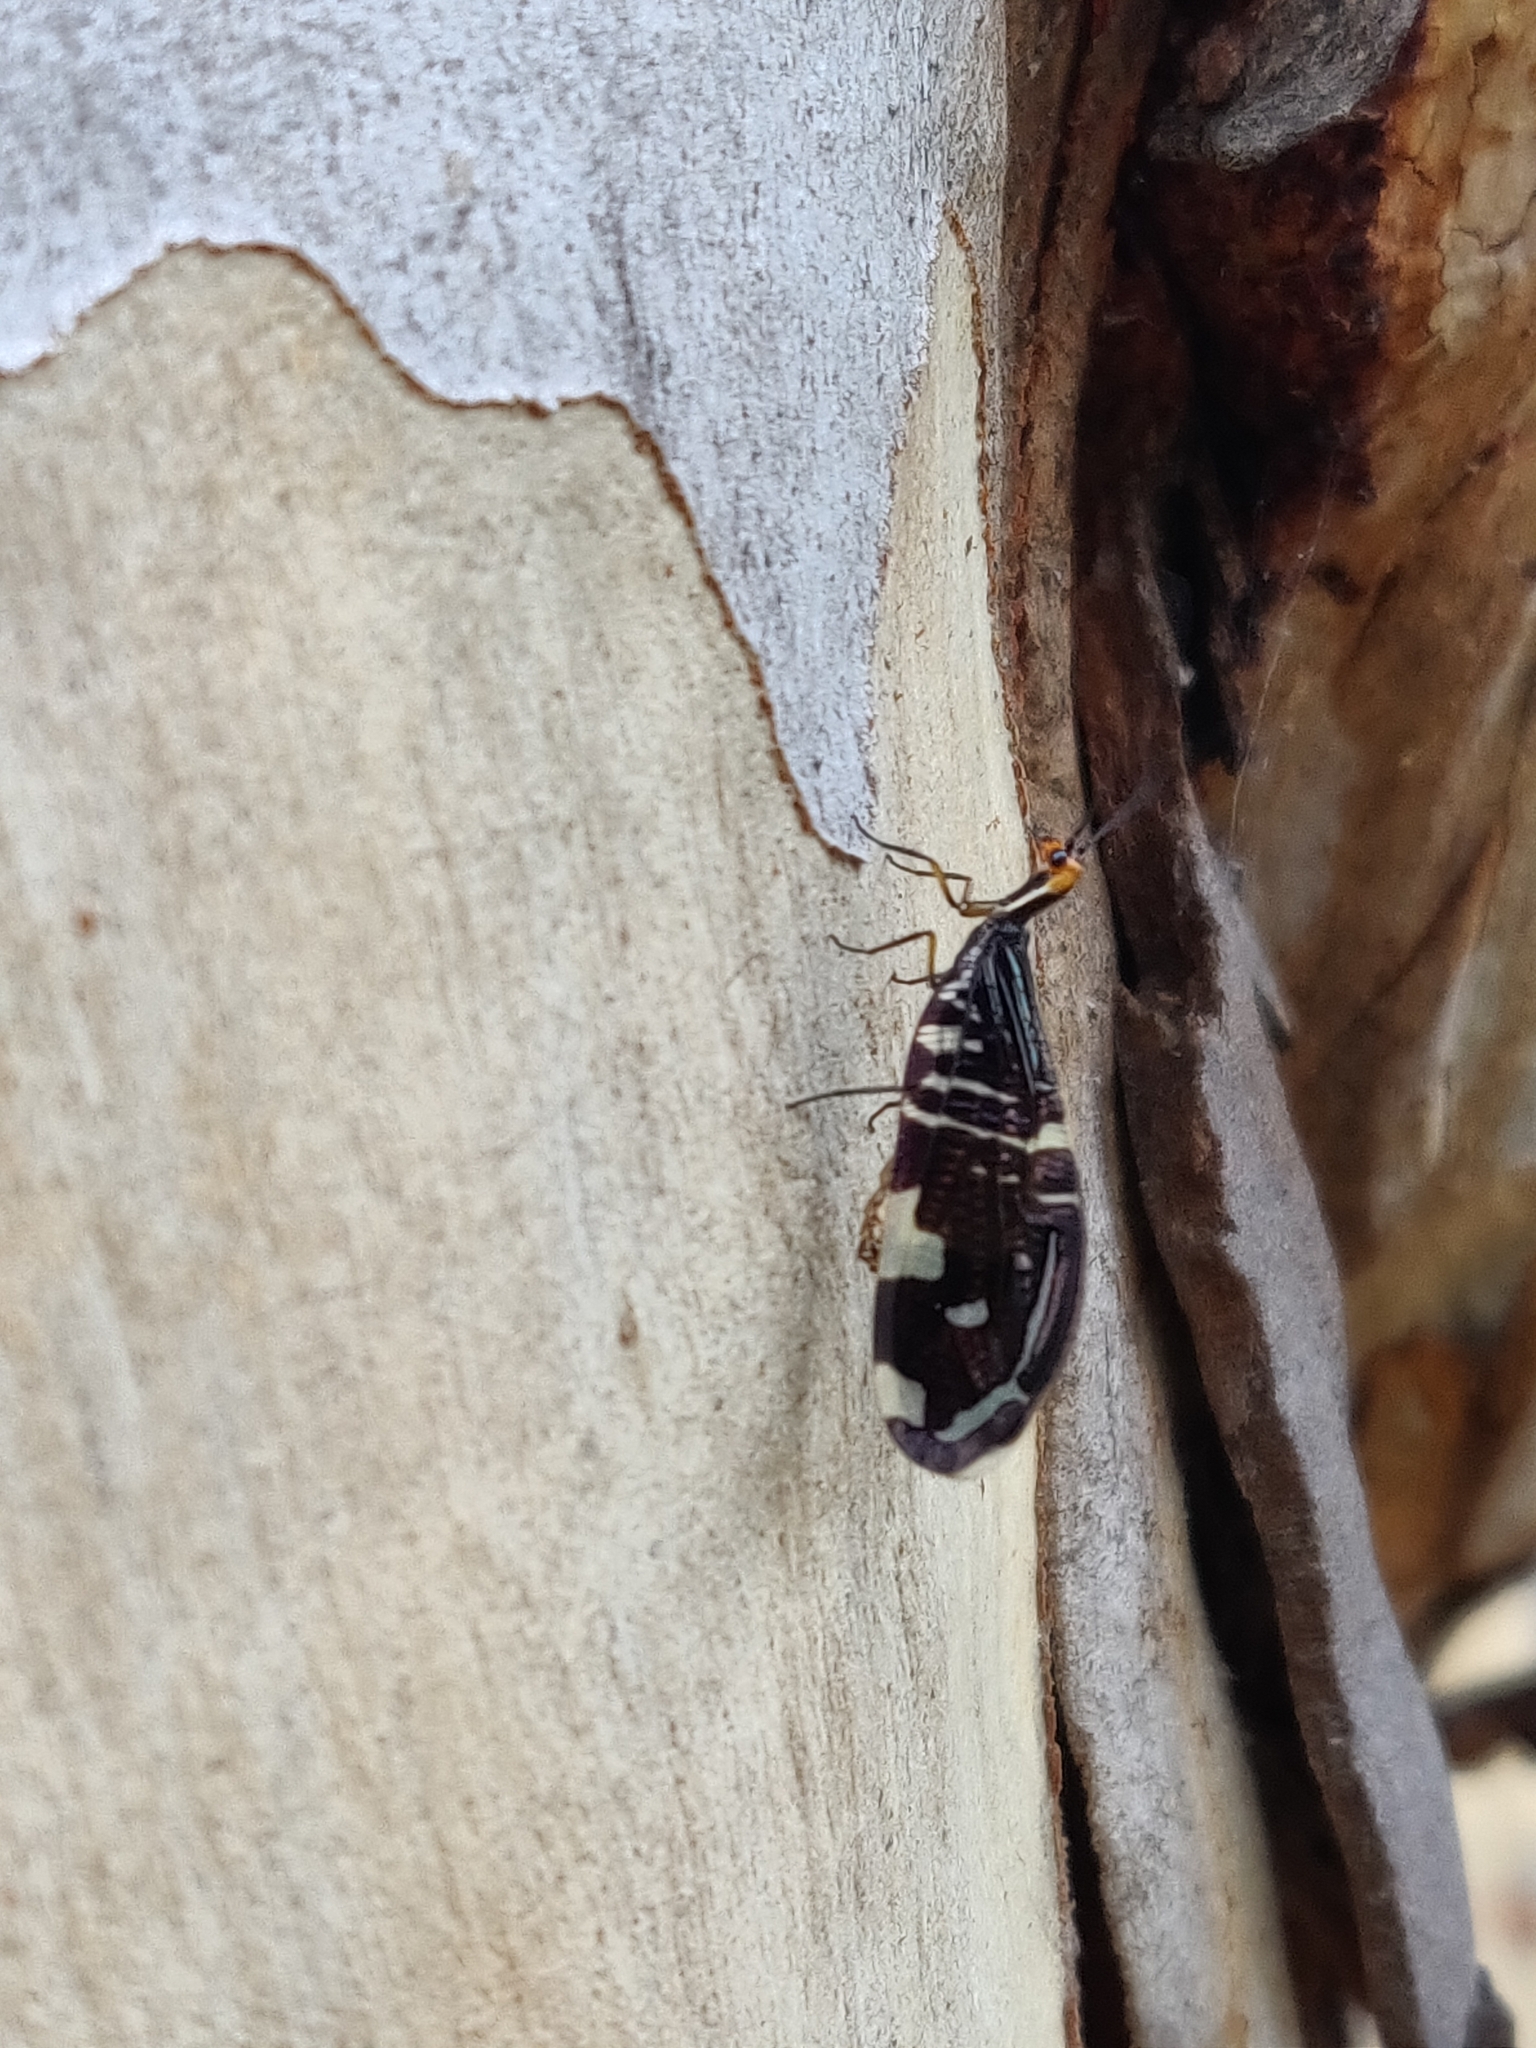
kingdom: Animalia
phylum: Arthropoda
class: Insecta
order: Neuroptera
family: Osmylidae
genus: Porismus
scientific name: Porismus strigatus
